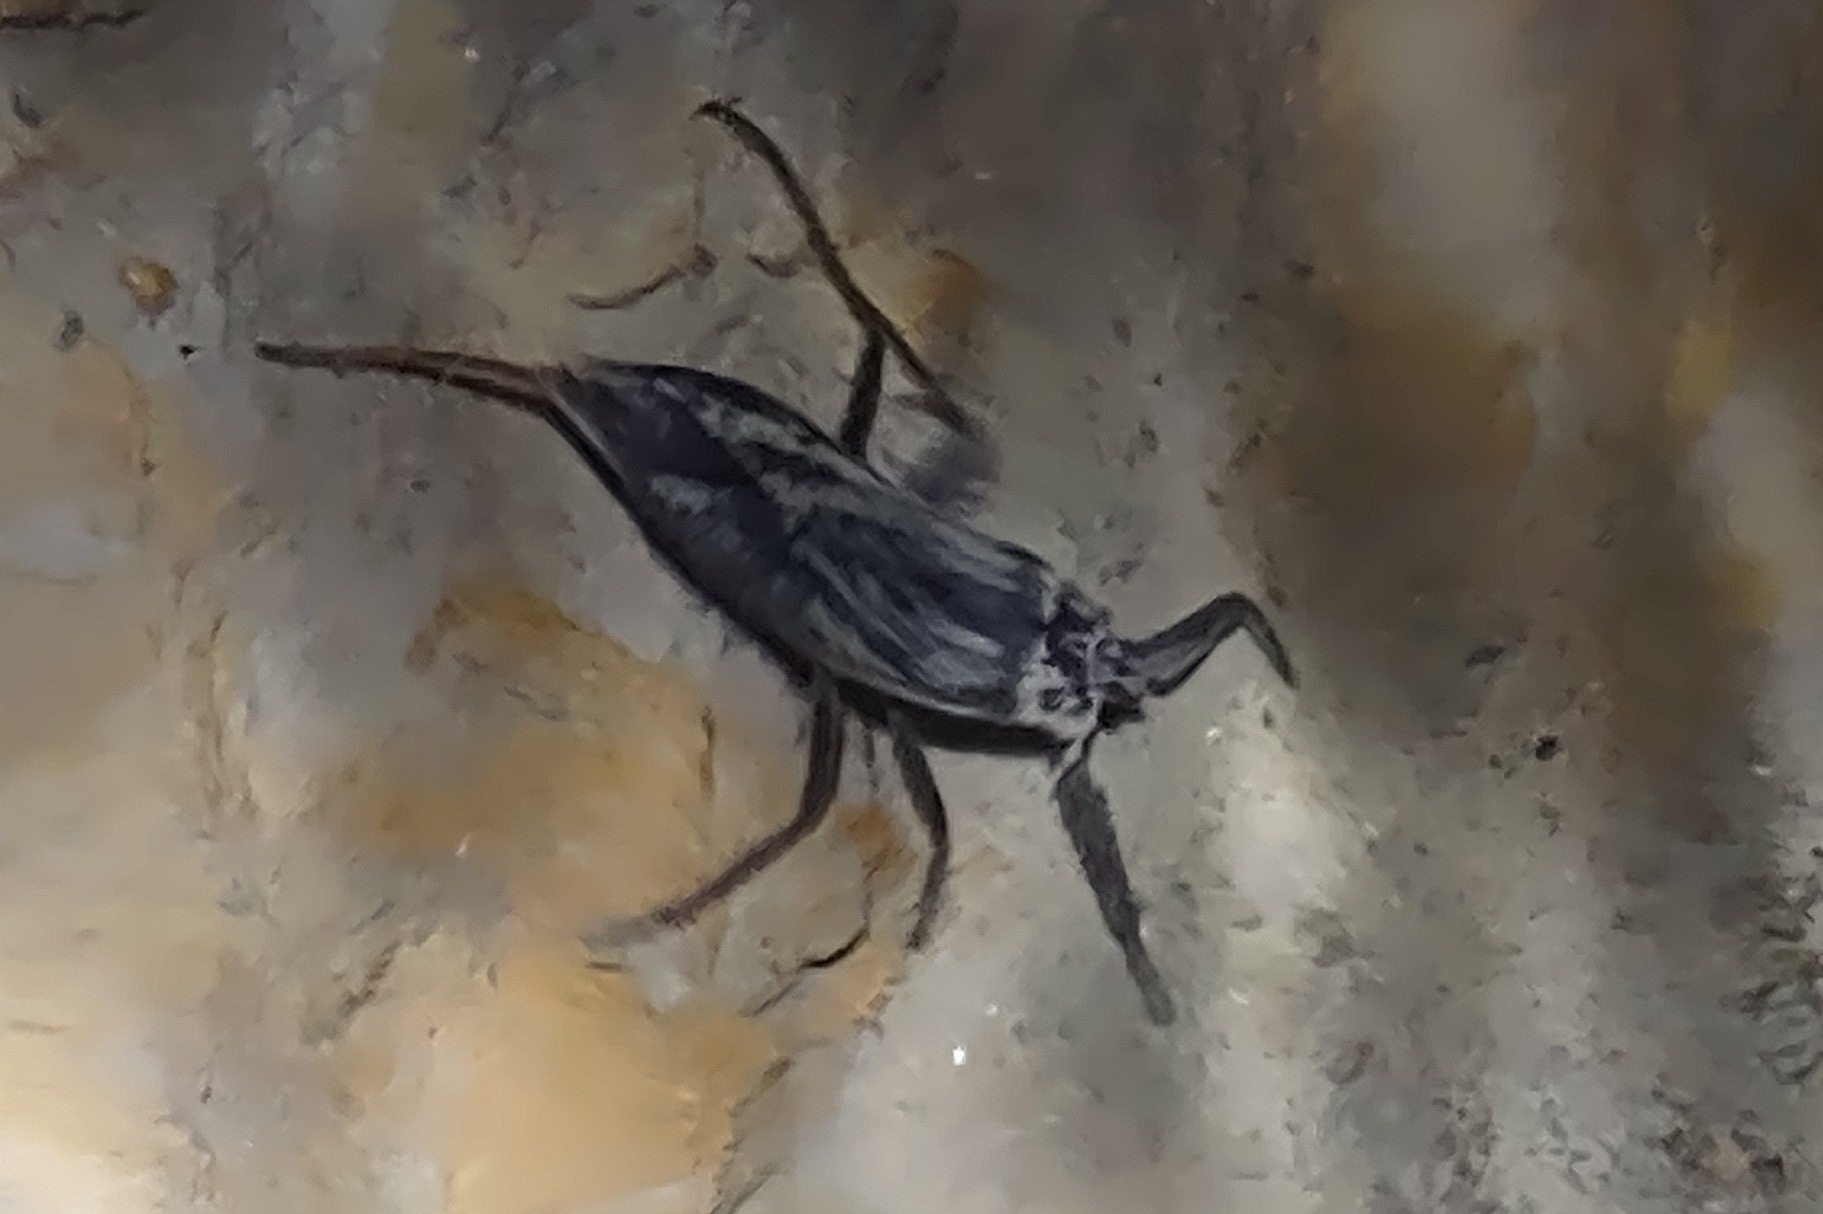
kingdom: Animalia
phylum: Arthropoda
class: Insecta
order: Hemiptera
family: Nepidae
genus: Nepa
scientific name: Nepa cinerea
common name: Water scorpion
